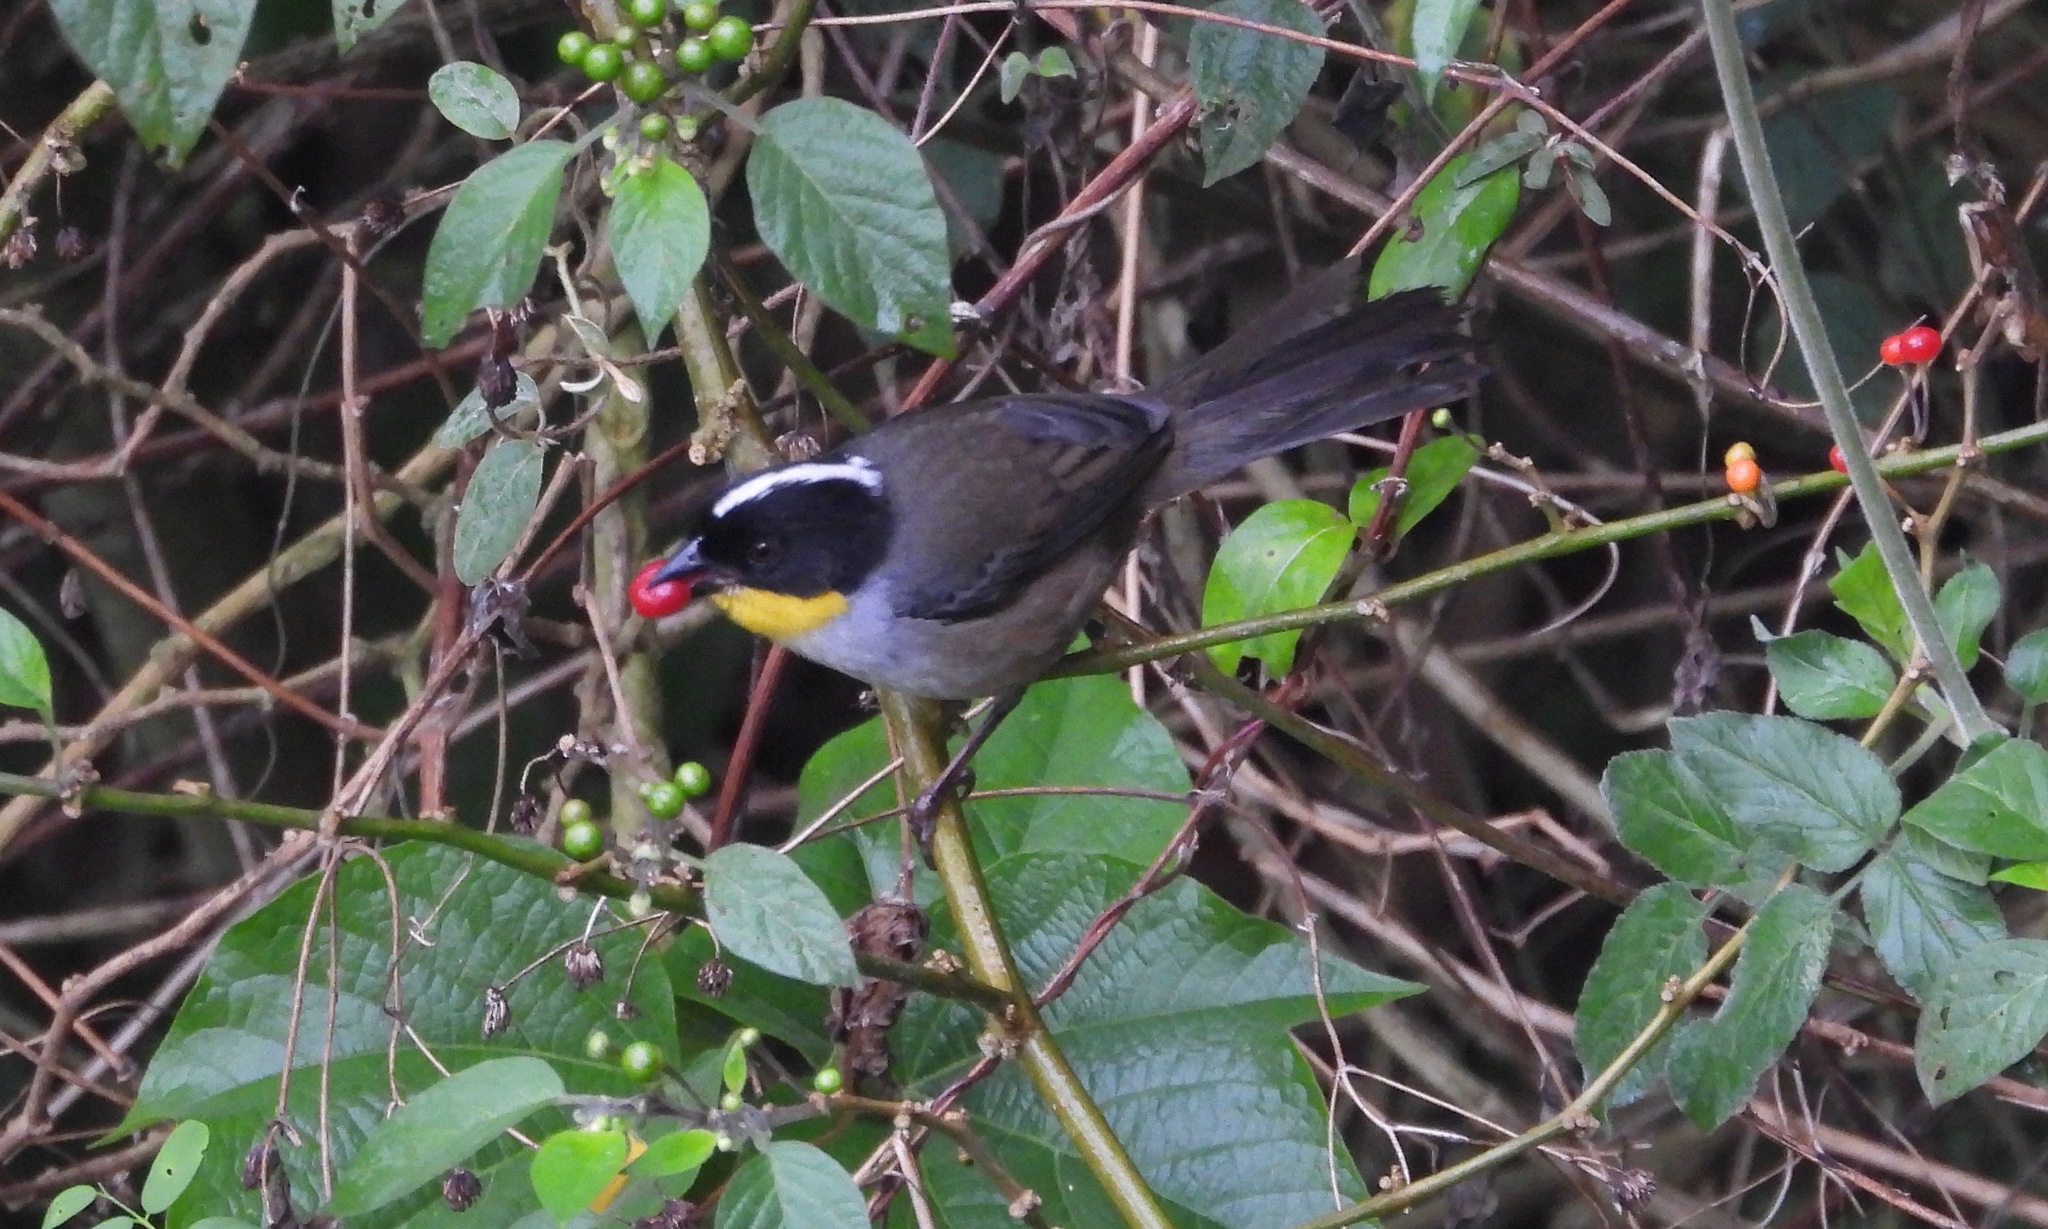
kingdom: Animalia
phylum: Chordata
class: Aves
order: Passeriformes
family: Passerellidae
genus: Atlapetes
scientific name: Atlapetes albinucha
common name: White-naped brush-finch
